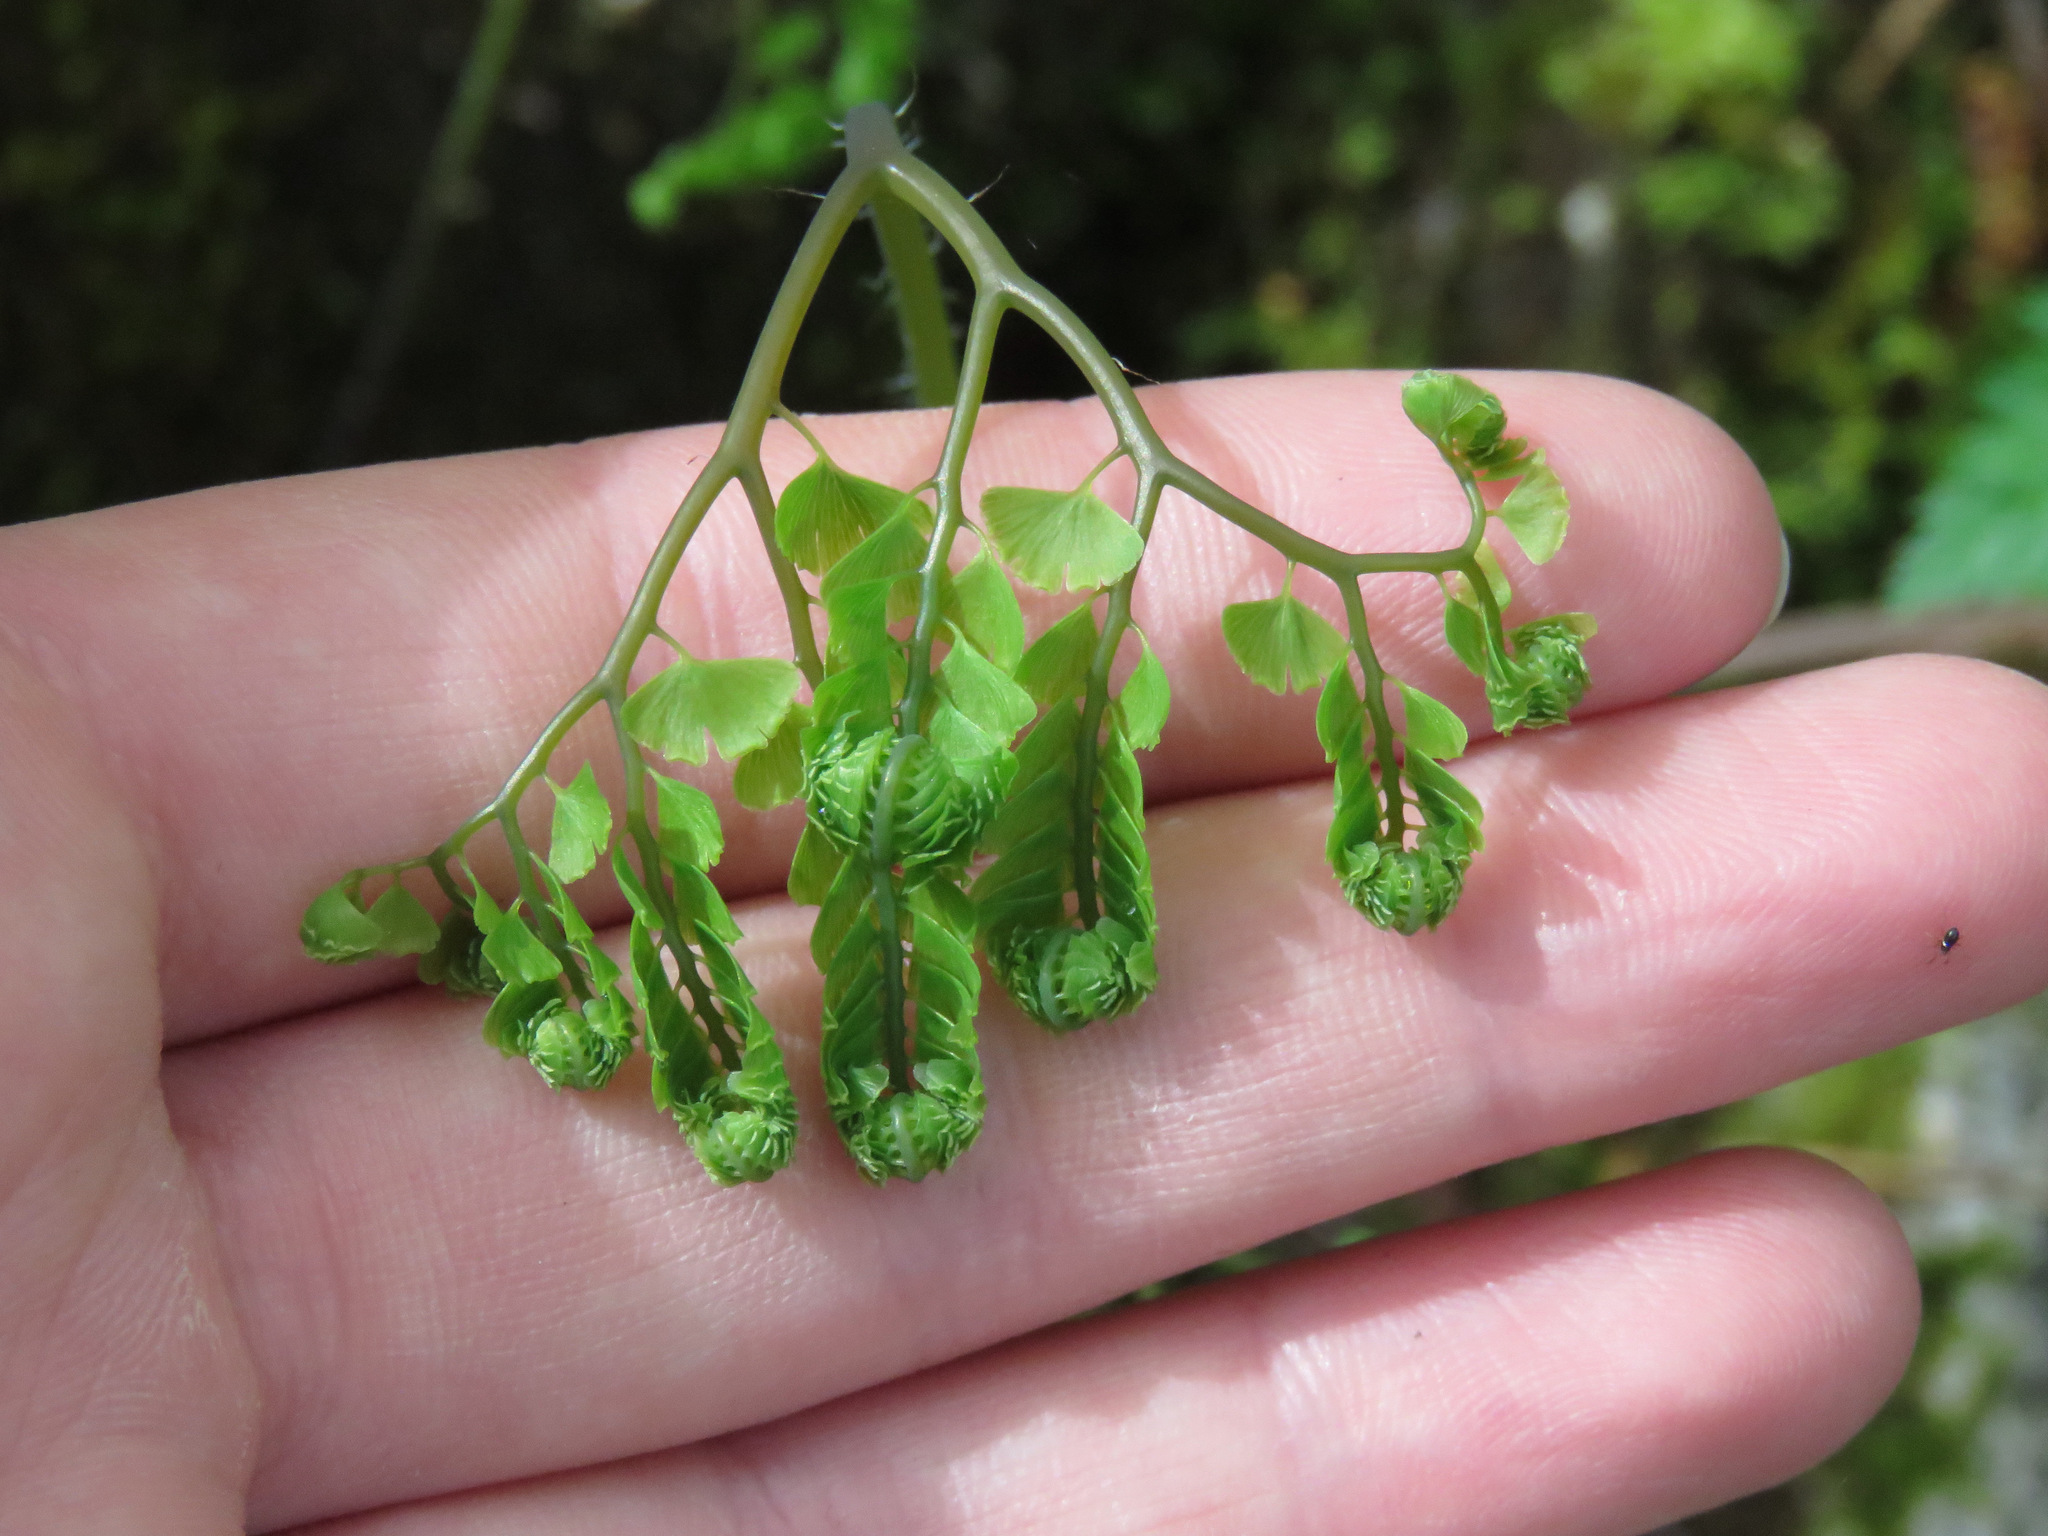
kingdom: Plantae
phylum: Tracheophyta
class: Polypodiopsida
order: Polypodiales
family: Pteridaceae
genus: Adiantum
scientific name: Adiantum aleuticum
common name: Aleutian maidenhair fern
